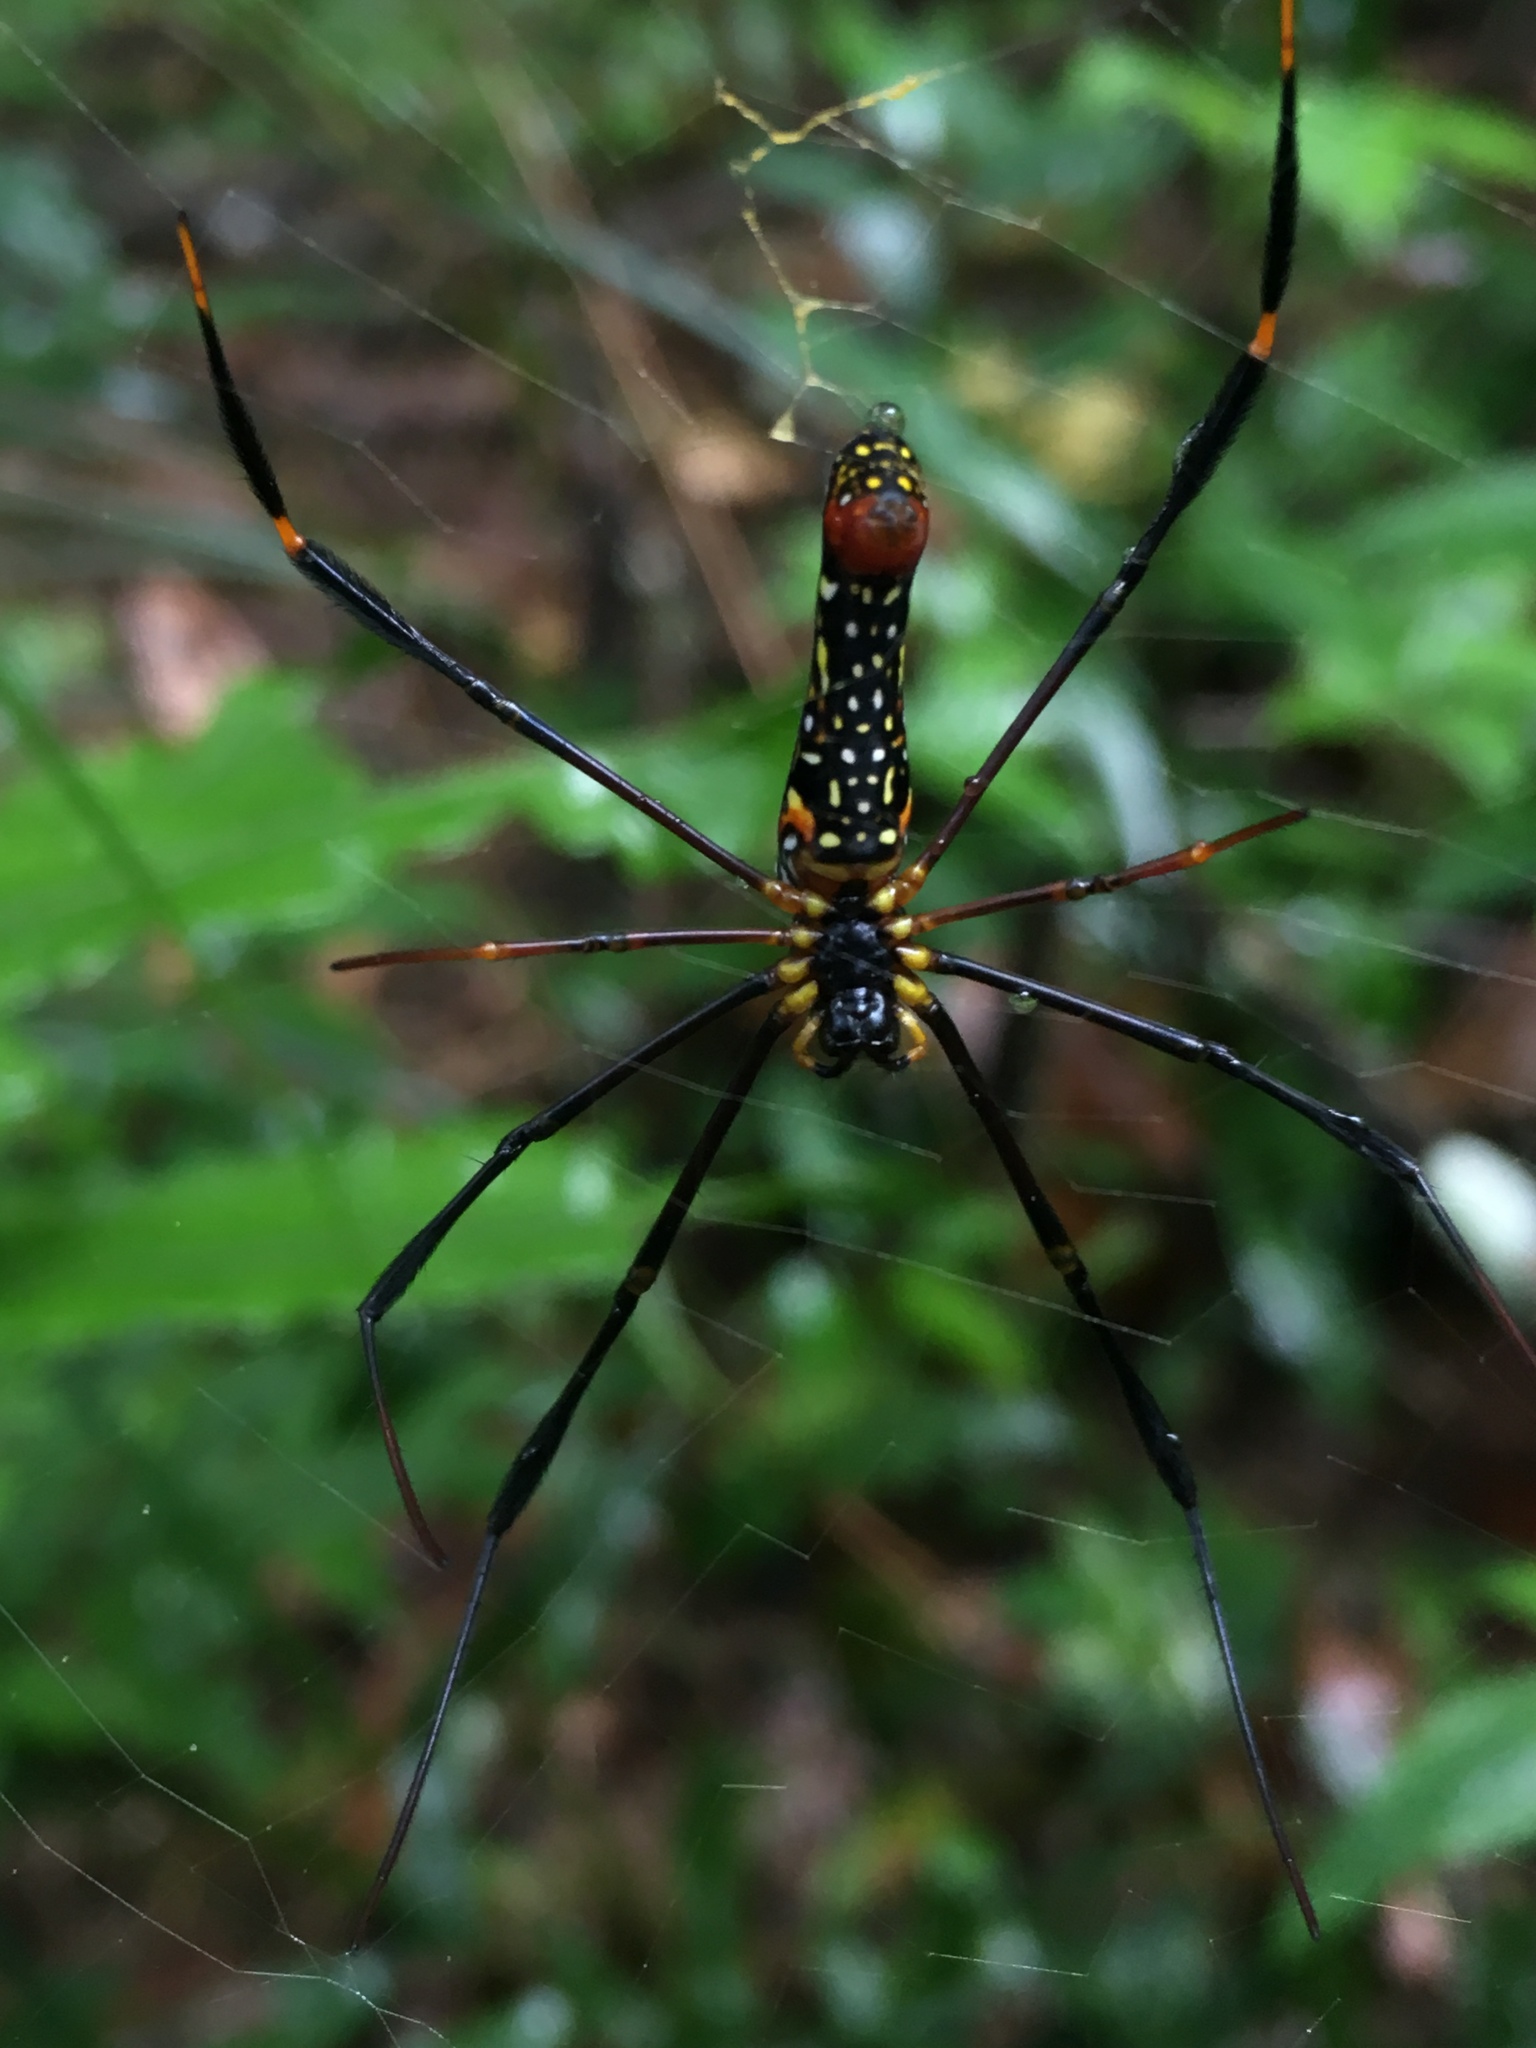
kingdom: Animalia
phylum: Arthropoda
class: Arachnida
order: Araneae
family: Araneidae
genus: Nephila
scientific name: Nephila pilipes
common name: Giant golden orb weaver
